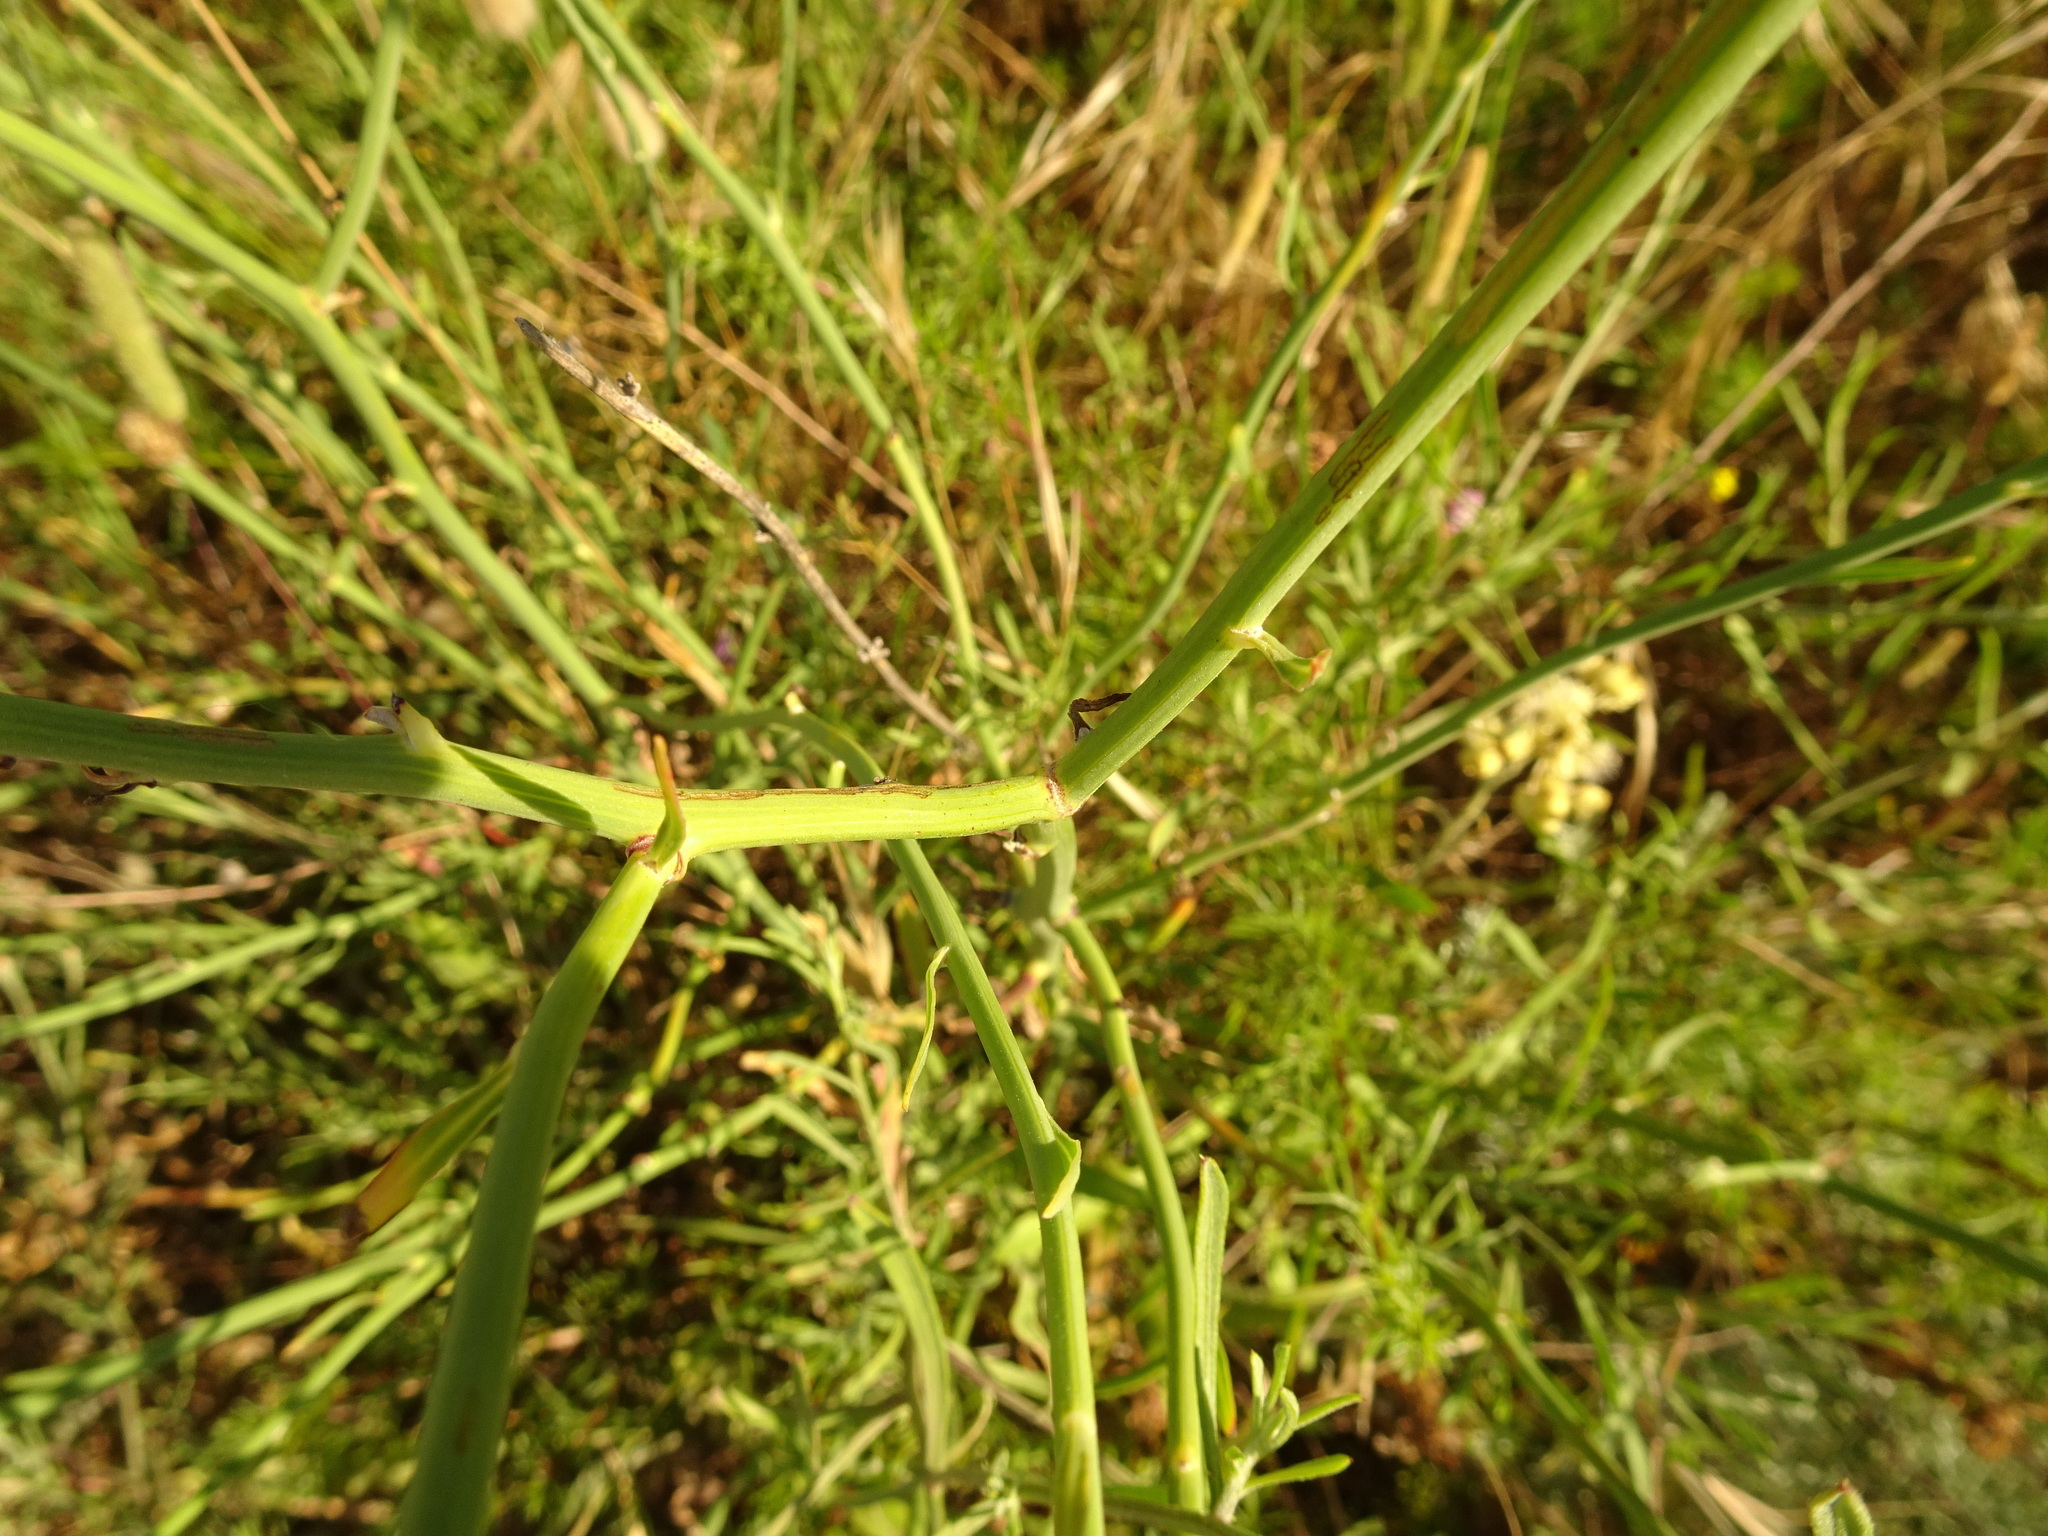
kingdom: Plantae
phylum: Tracheophyta
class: Magnoliopsida
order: Asterales
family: Asteraceae
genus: Cichorium
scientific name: Cichorium intybus
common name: Chicory
